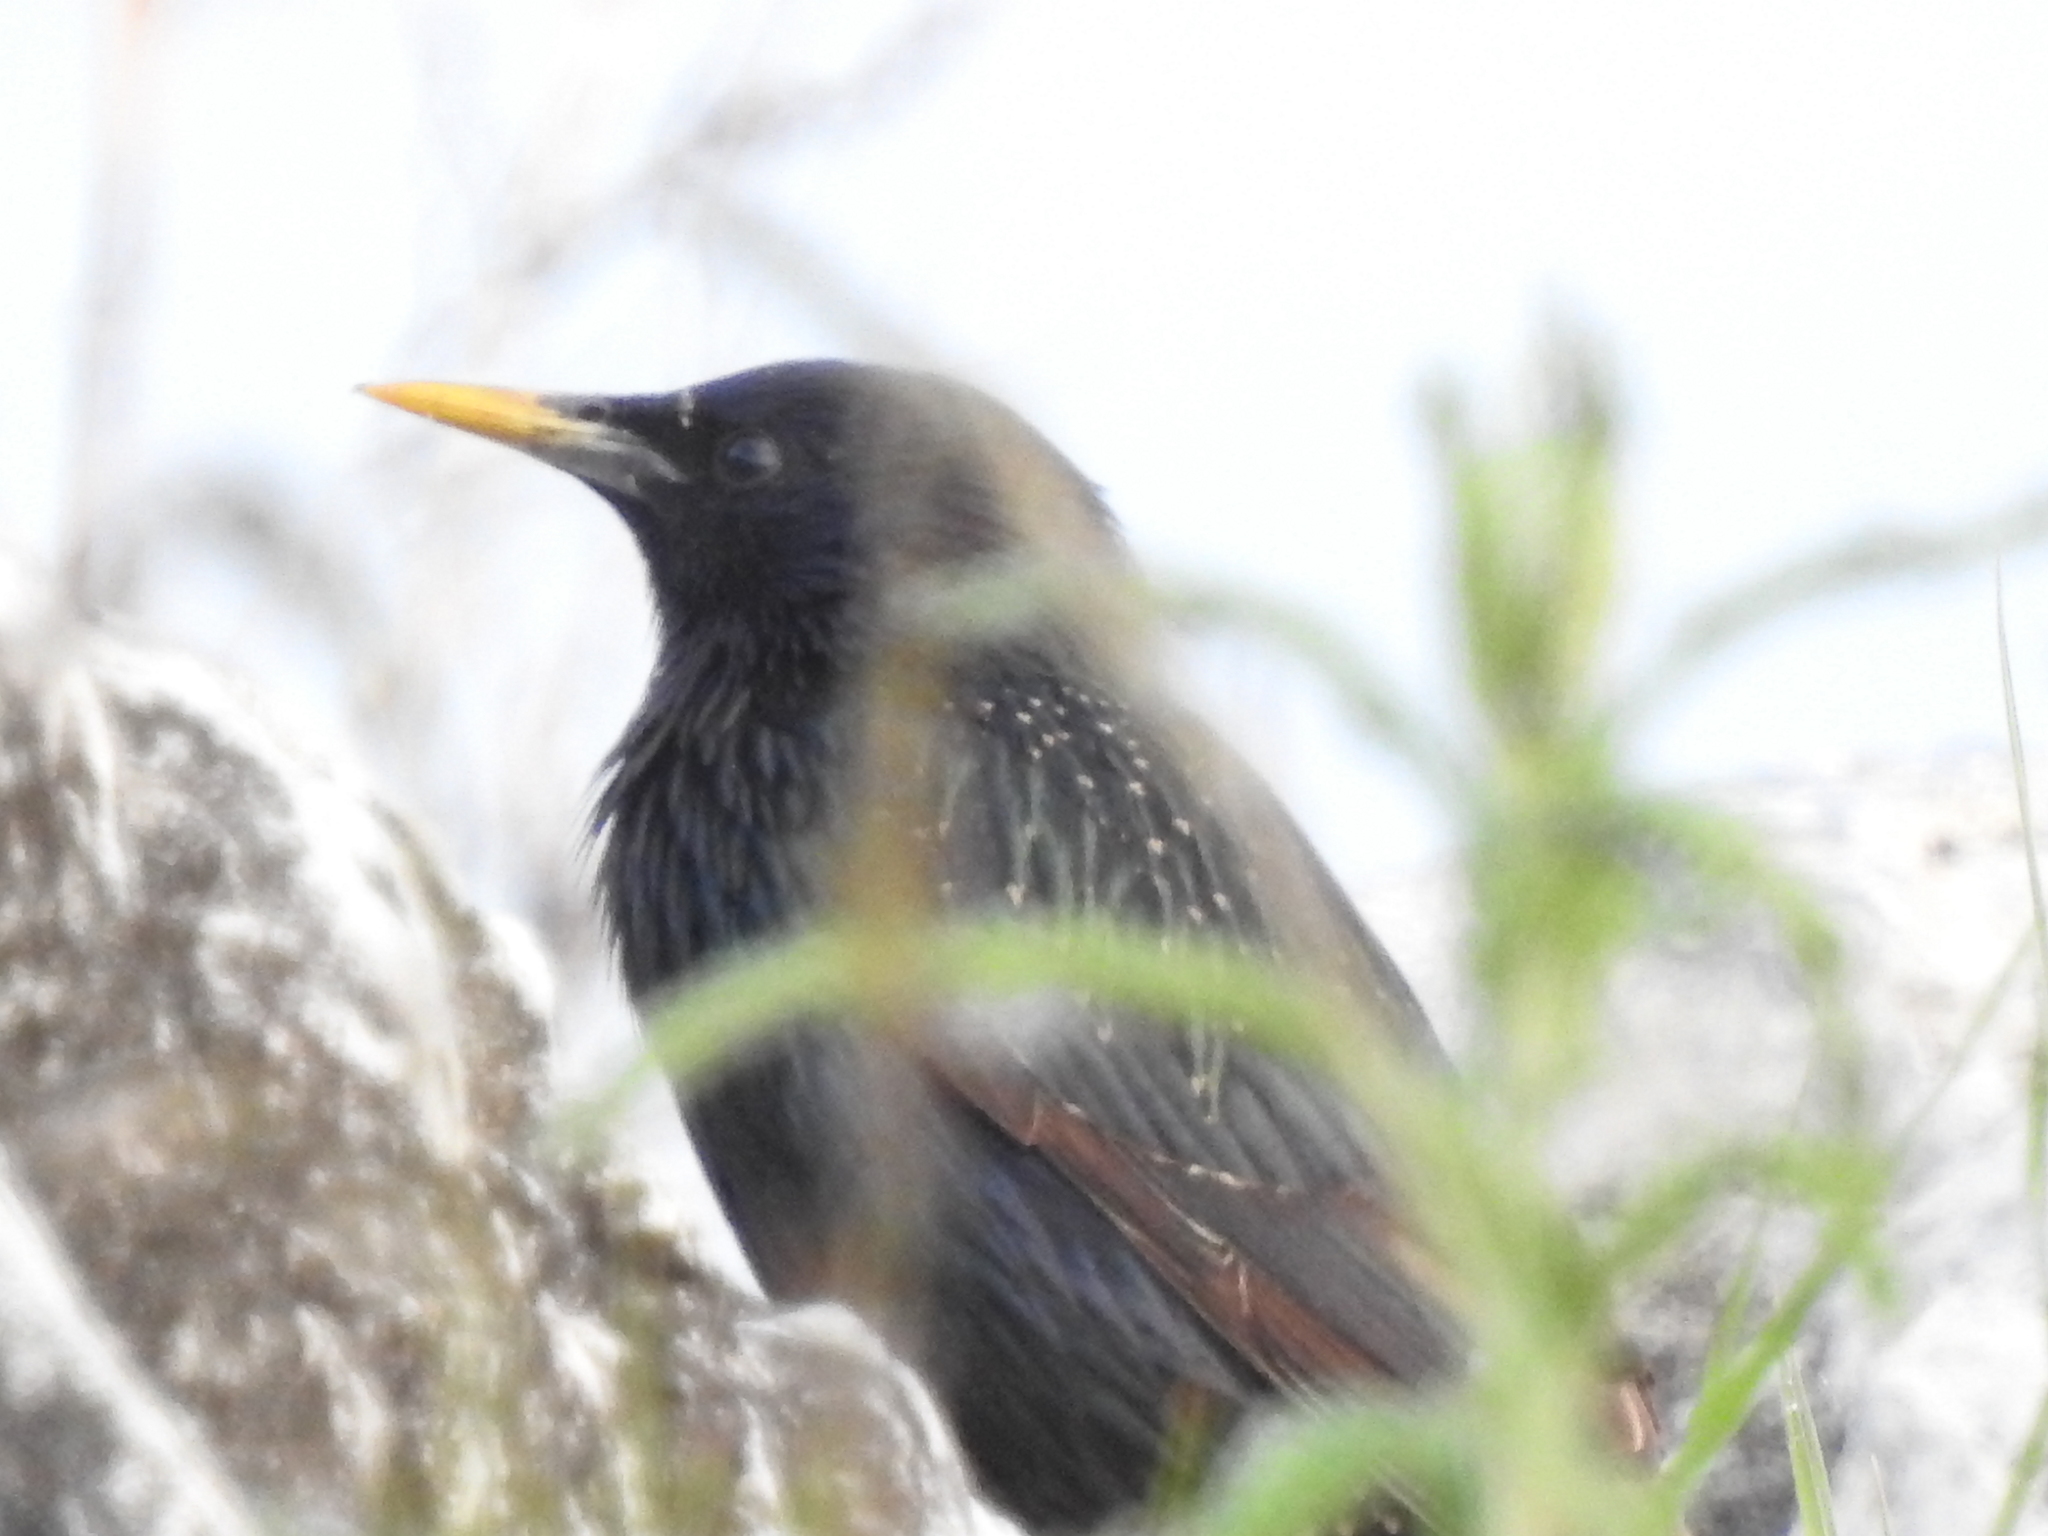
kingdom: Animalia
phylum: Chordata
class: Aves
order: Passeriformes
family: Sturnidae
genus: Sturnus
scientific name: Sturnus vulgaris
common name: Common starling
